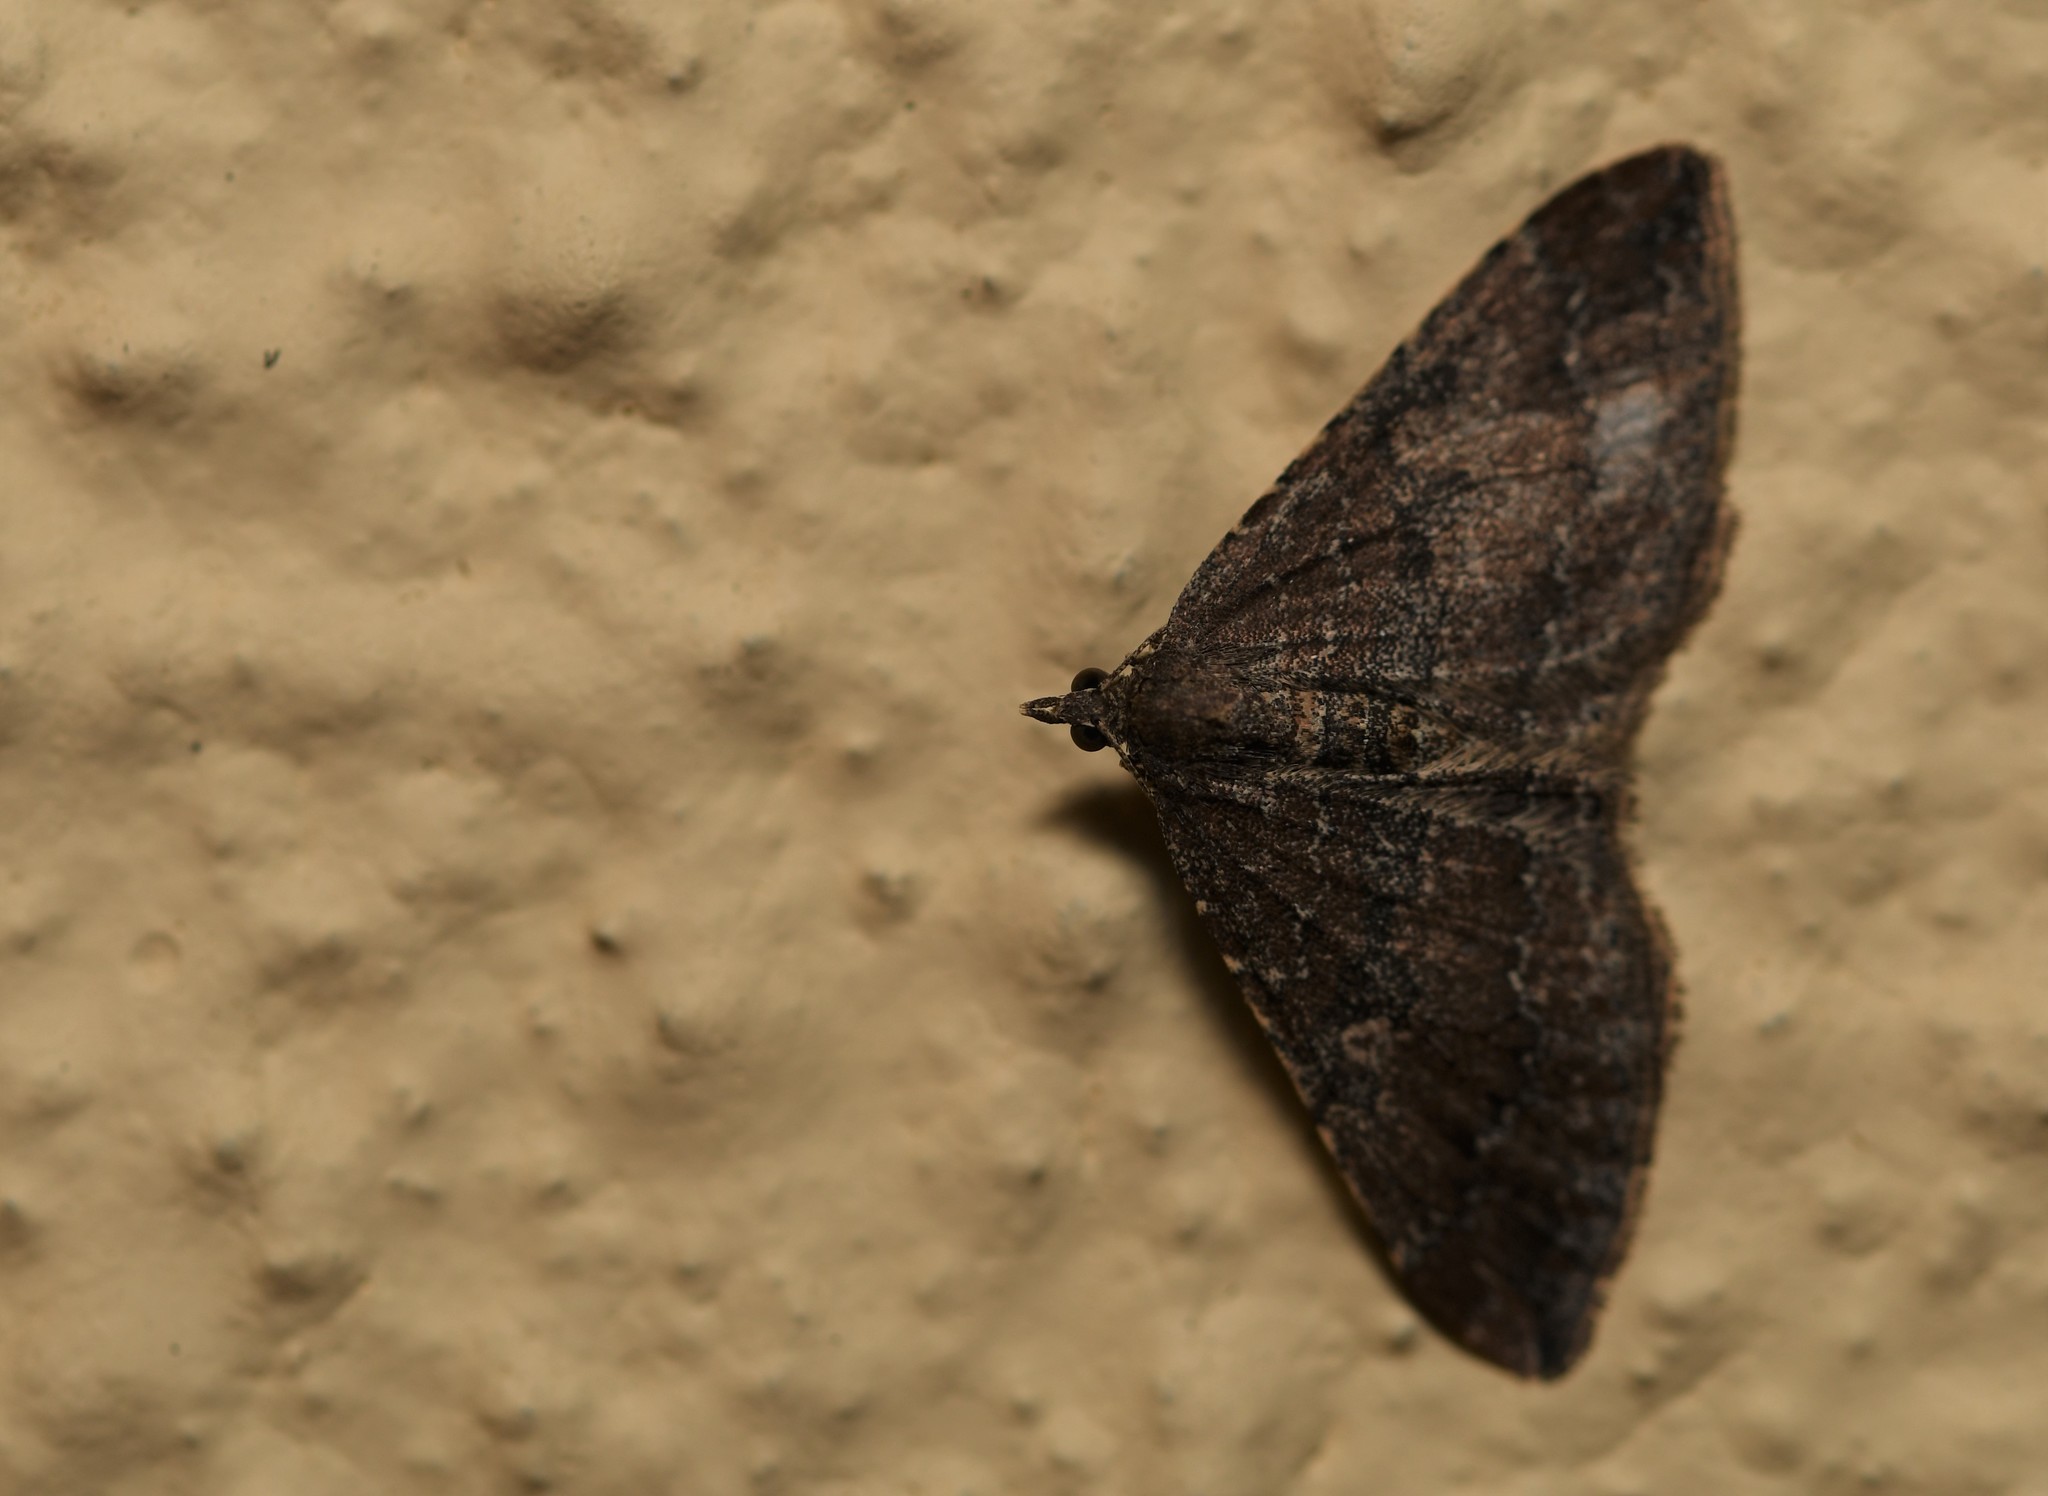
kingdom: Animalia
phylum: Arthropoda
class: Insecta
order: Lepidoptera
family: Geometridae
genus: Orthonama
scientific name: Orthonama obstipata
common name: The gem
